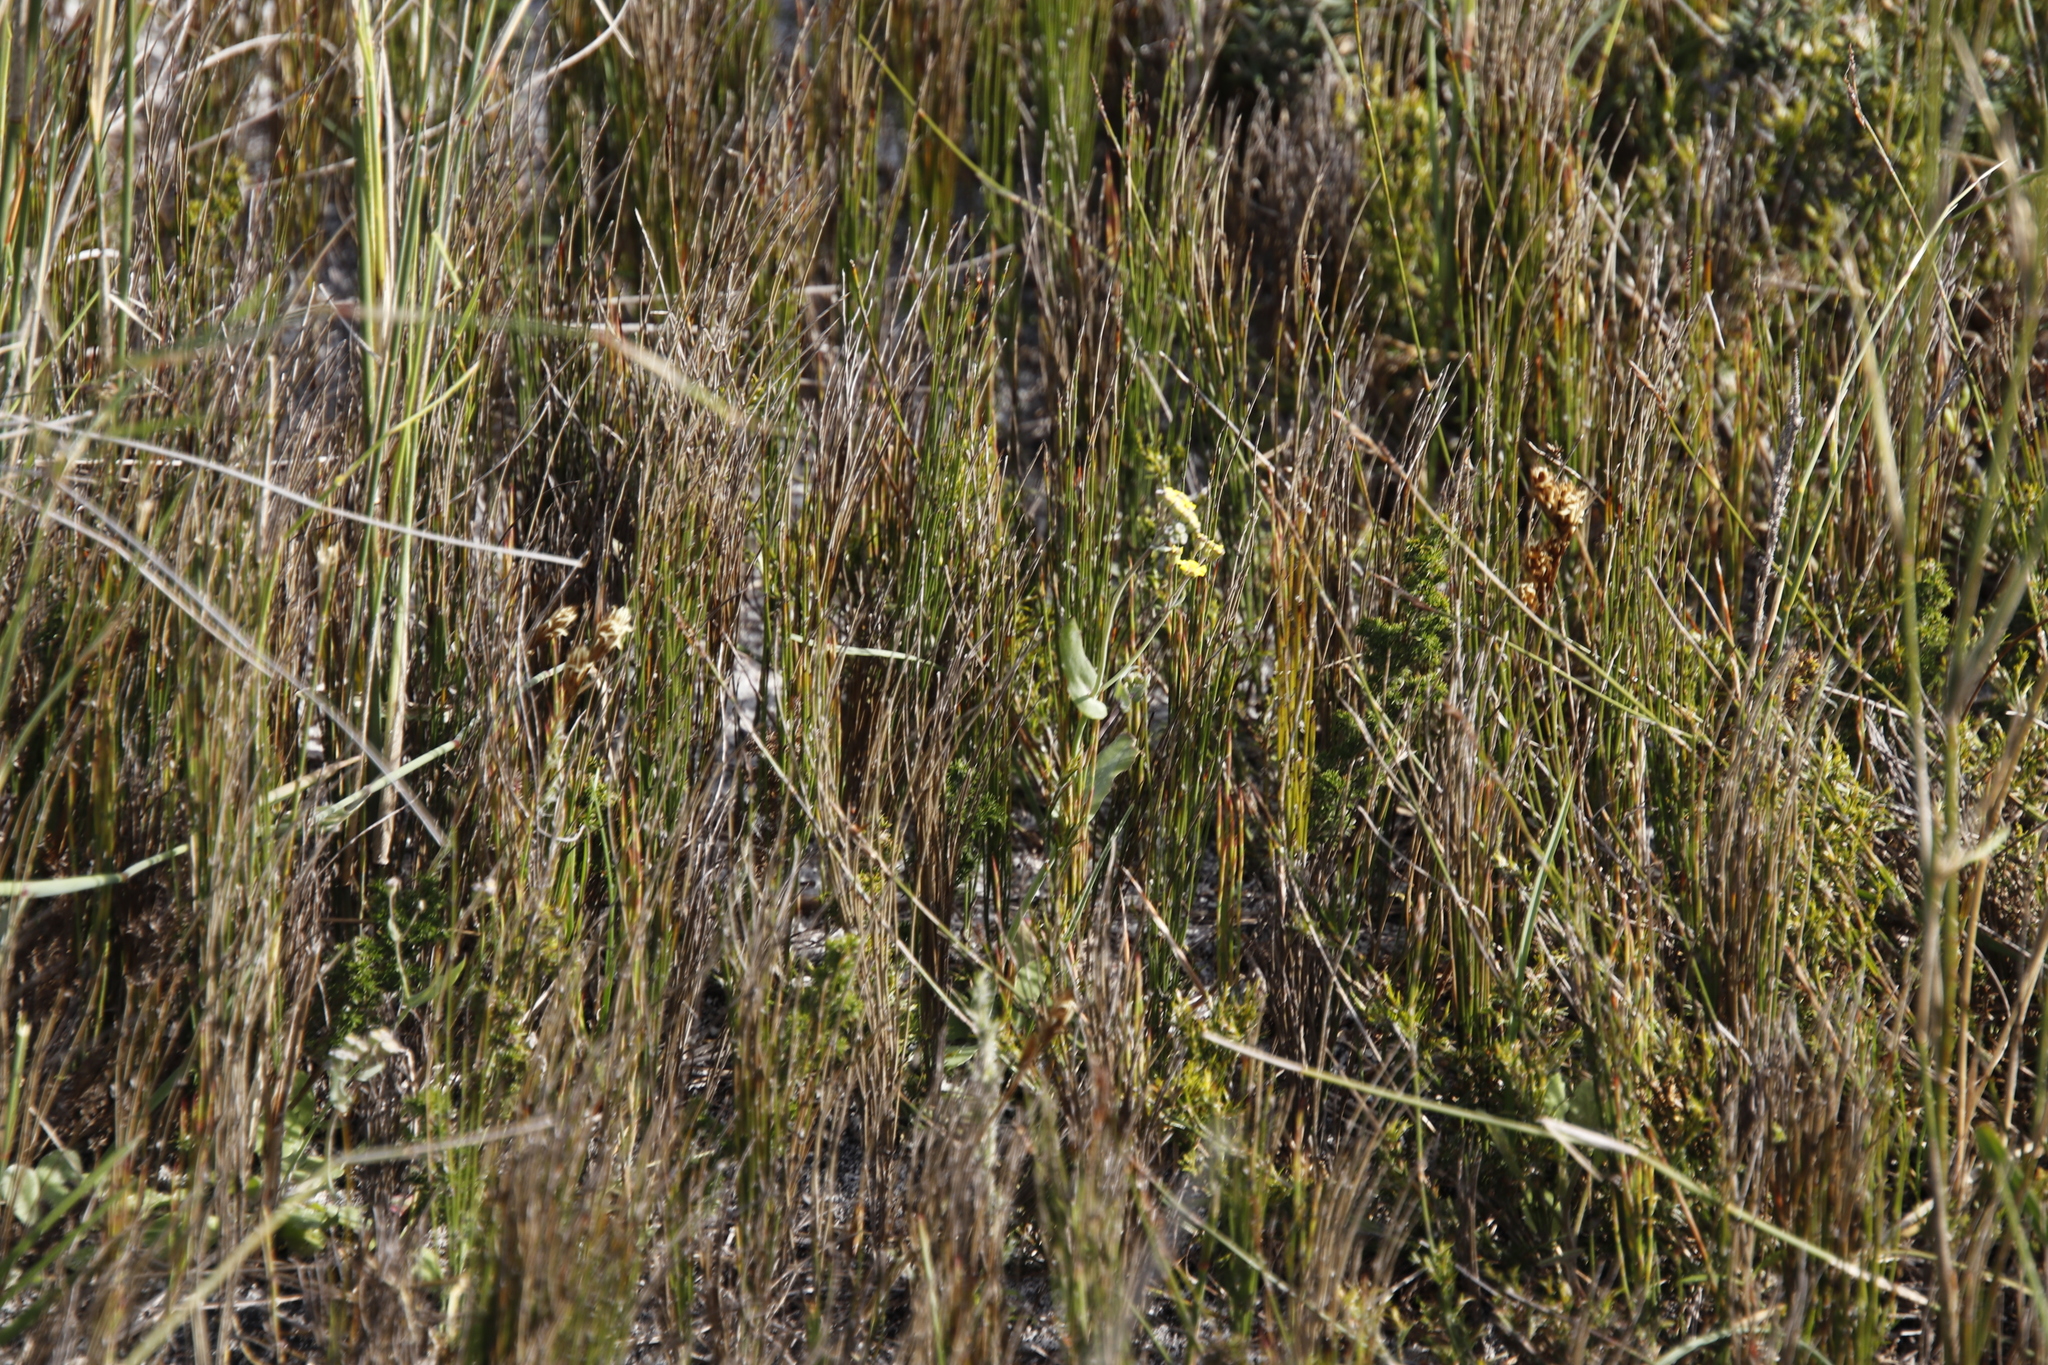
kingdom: Plantae
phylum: Tracheophyta
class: Magnoliopsida
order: Asterales
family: Asteraceae
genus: Gymnodiscus
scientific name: Gymnodiscus capillaris
